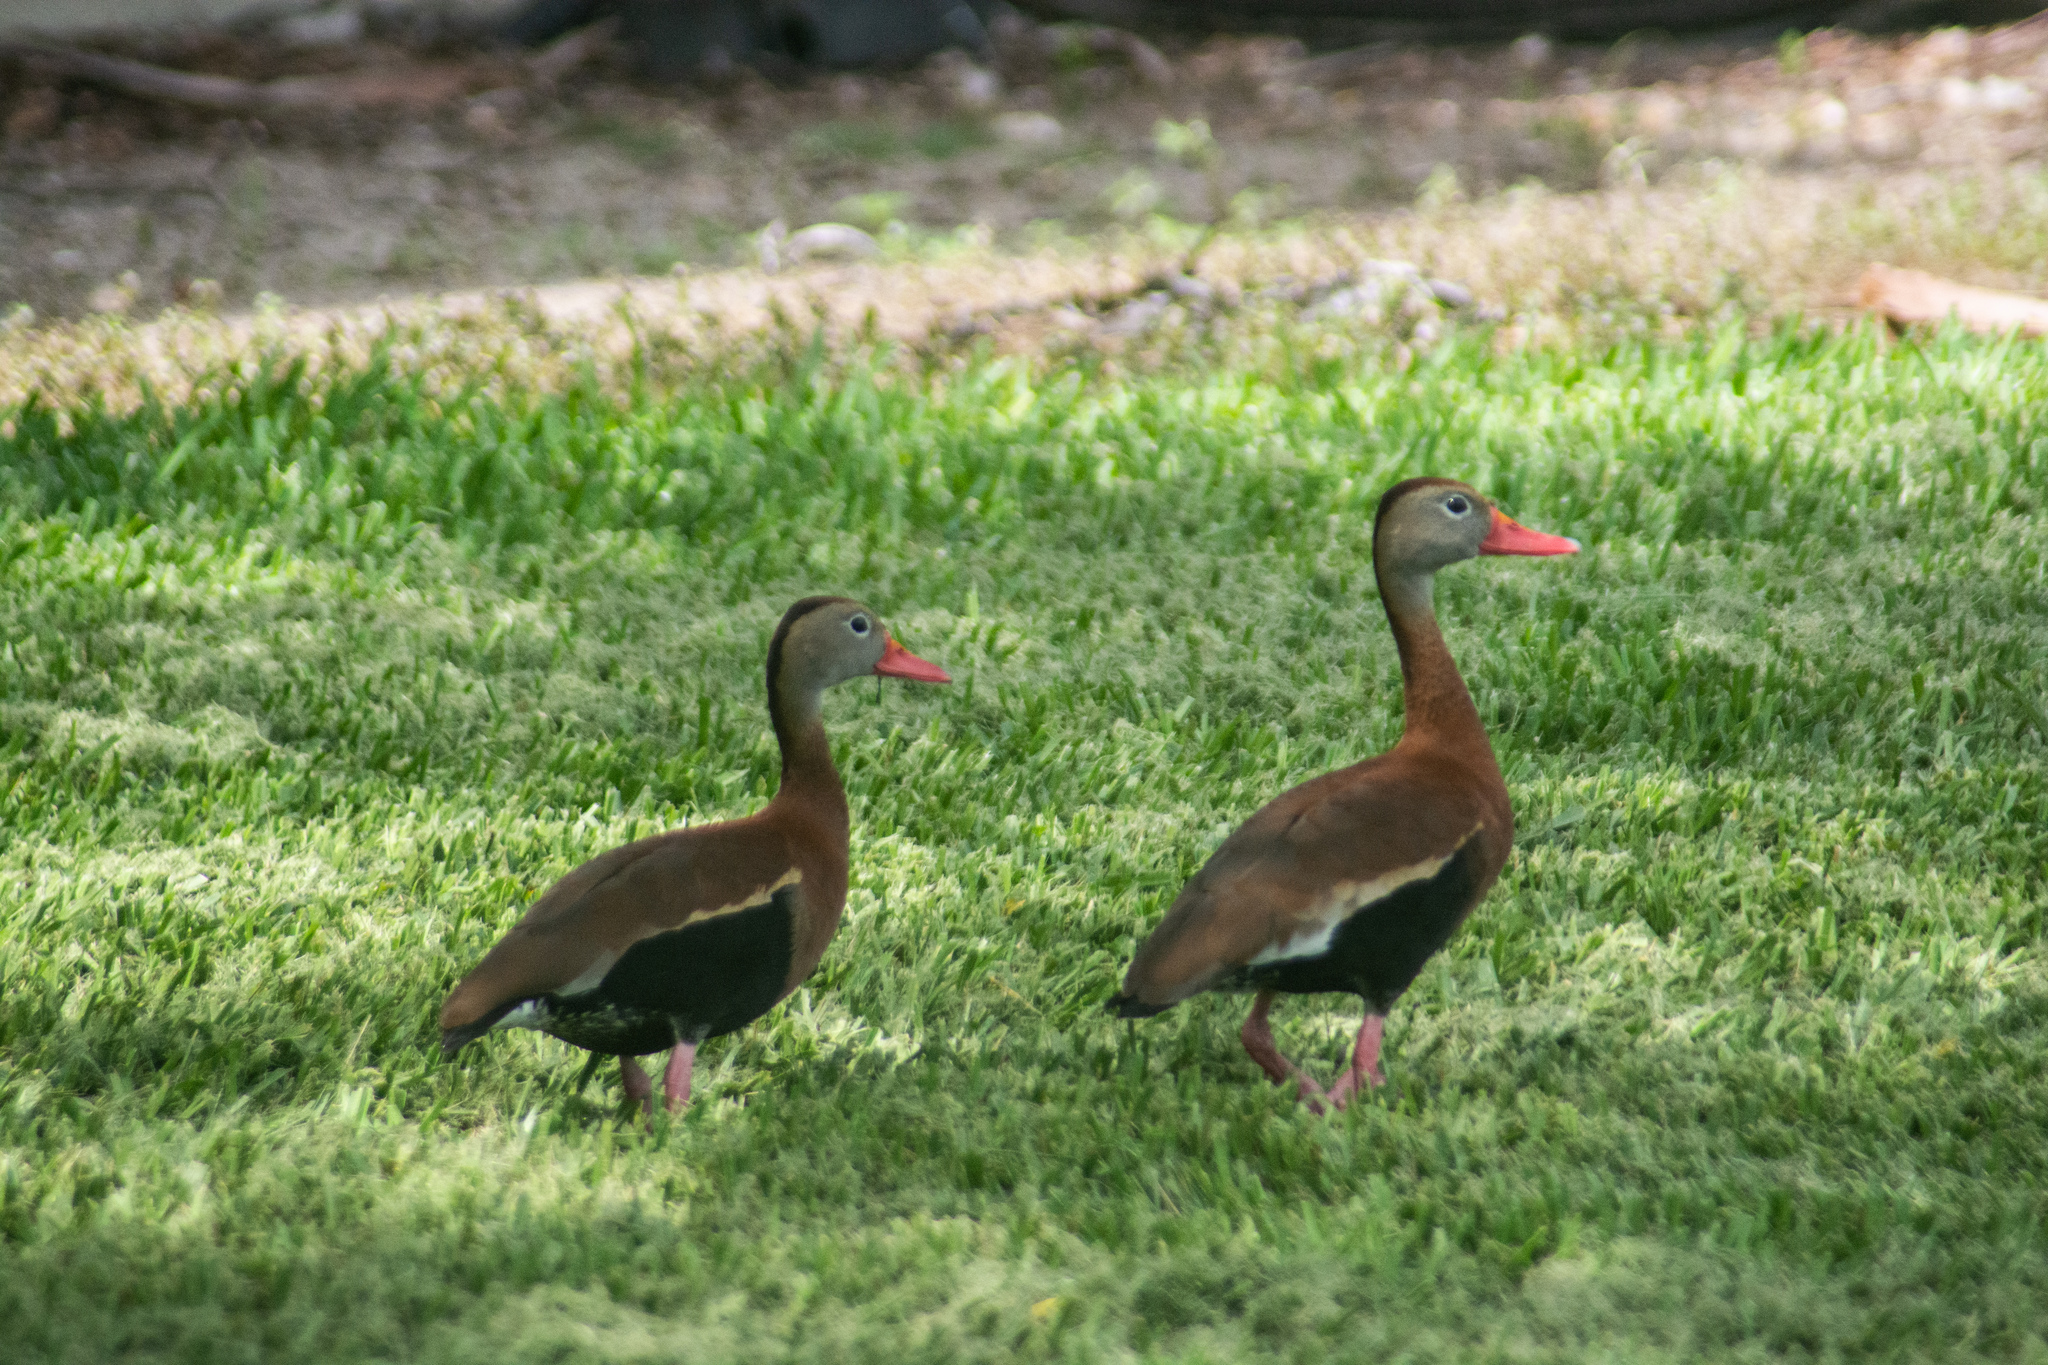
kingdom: Animalia
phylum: Chordata
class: Aves
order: Anseriformes
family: Anatidae
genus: Dendrocygna
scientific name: Dendrocygna autumnalis
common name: Black-bellied whistling duck
